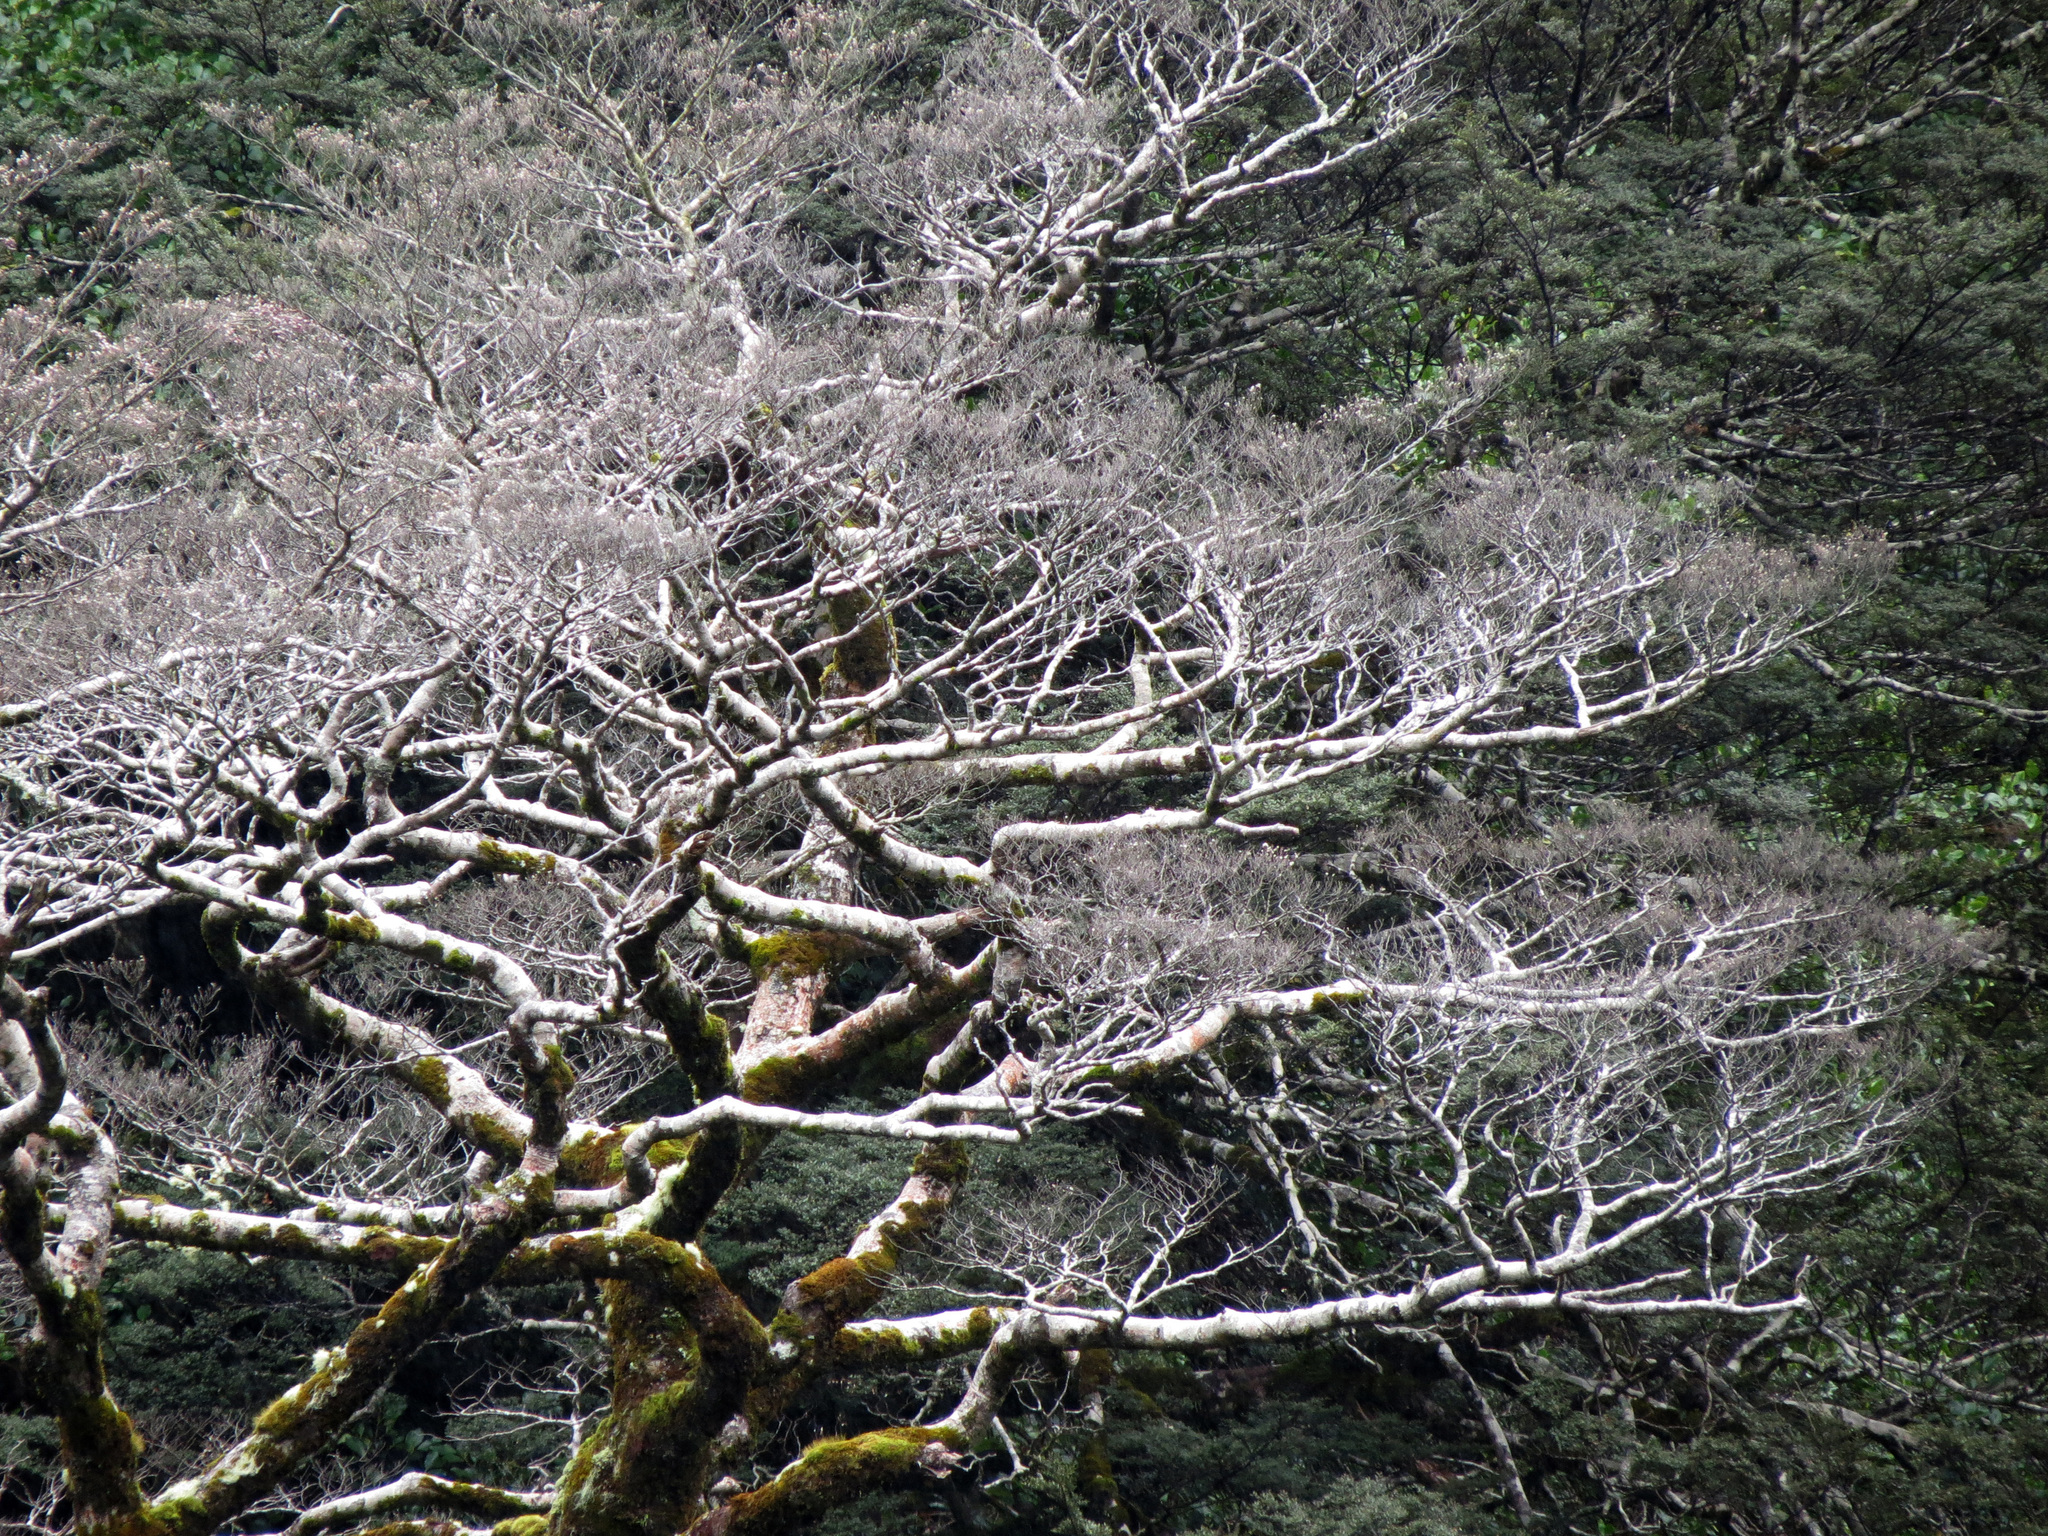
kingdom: Plantae
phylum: Tracheophyta
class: Magnoliopsida
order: Fagales
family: Nothofagaceae
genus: Nothofagus
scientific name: Nothofagus cliffortioides
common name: Mountain beech
